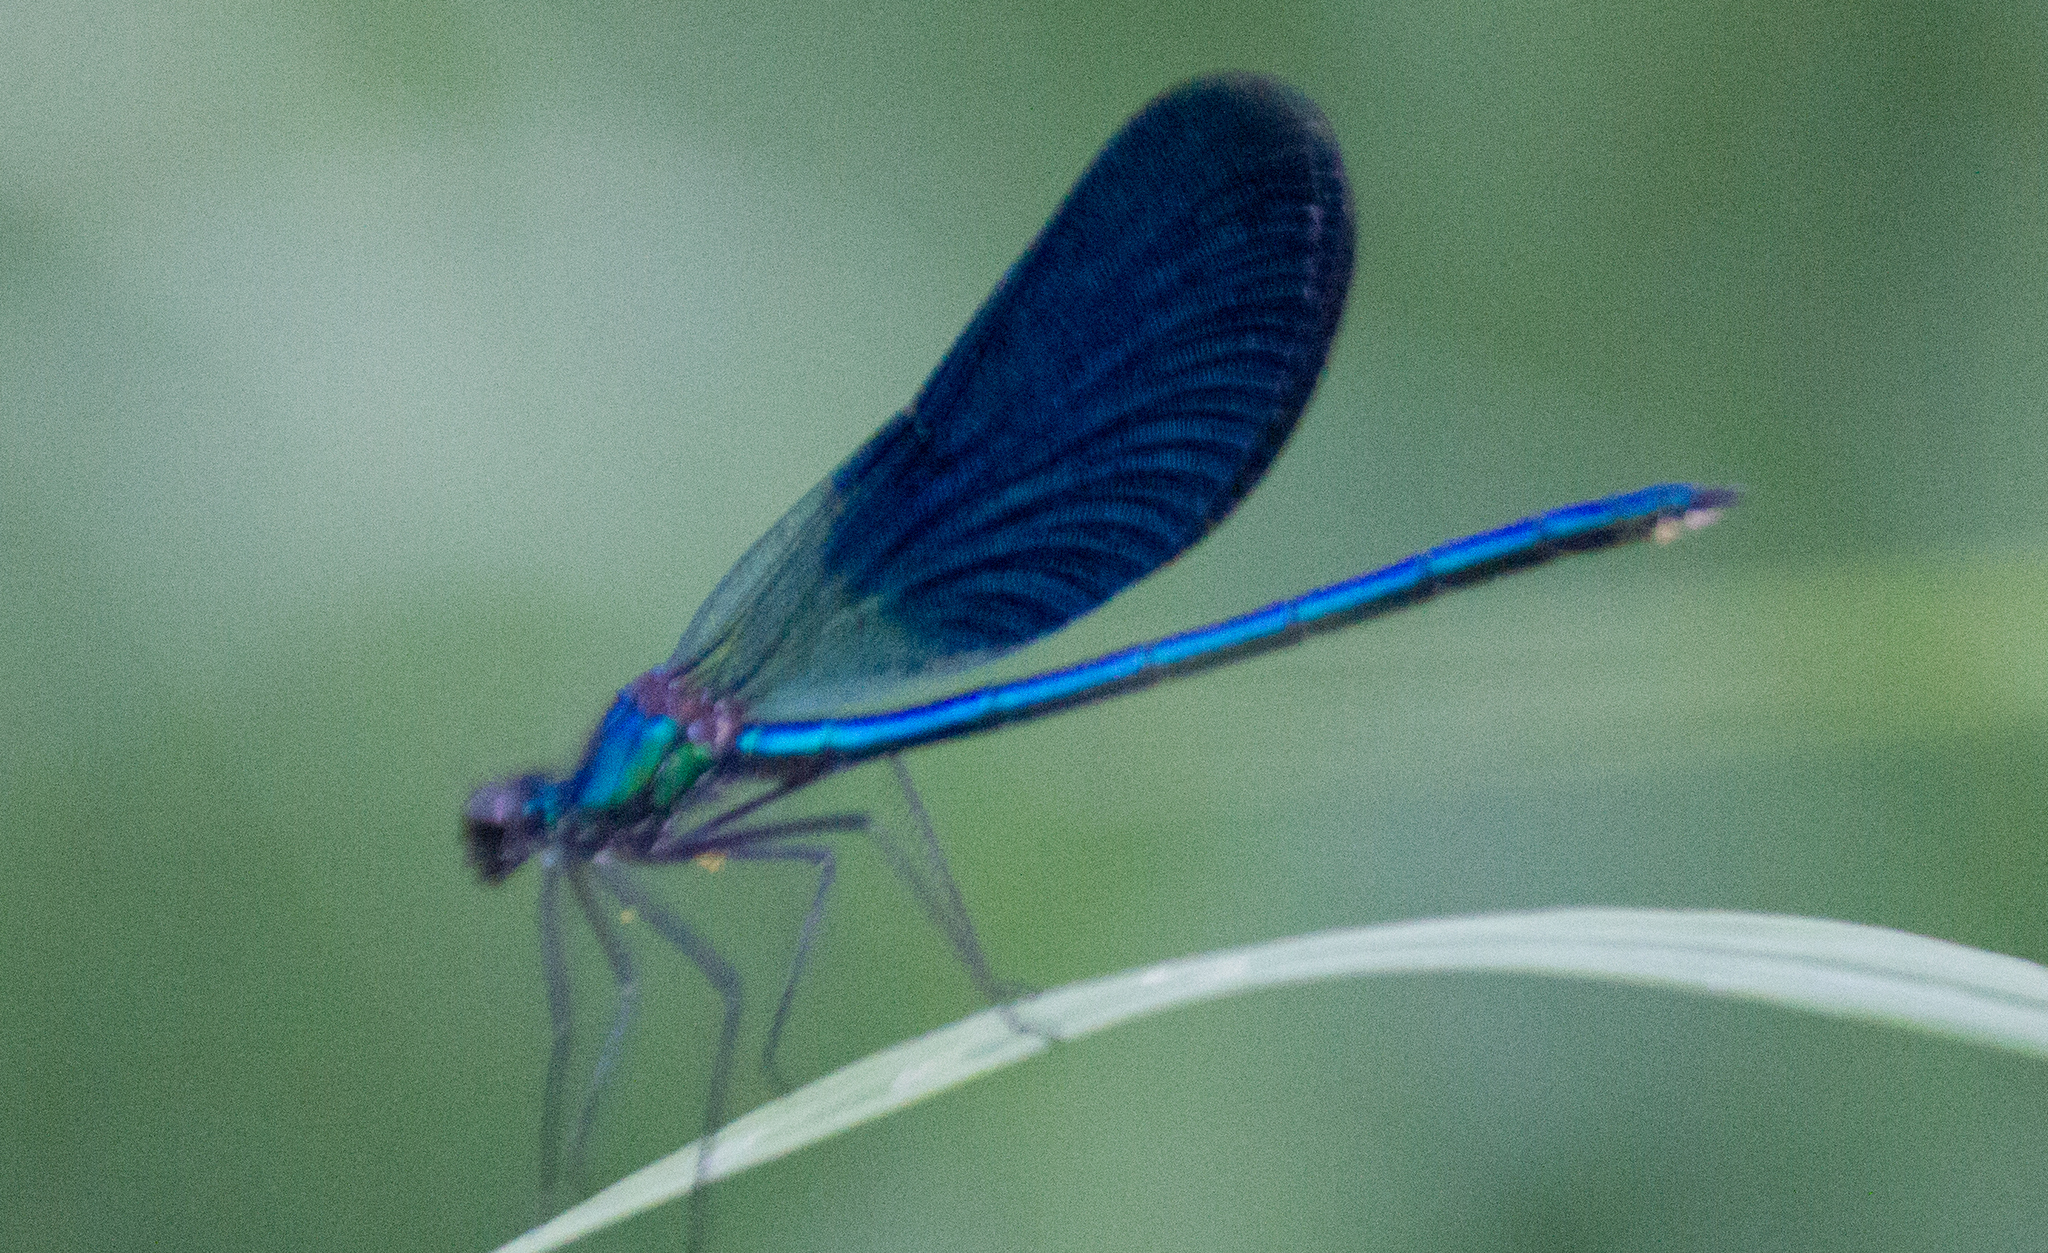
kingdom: Animalia
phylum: Arthropoda
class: Insecta
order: Odonata
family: Calopterygidae
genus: Calopteryx
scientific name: Calopteryx splendens
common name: Banded demoiselle
